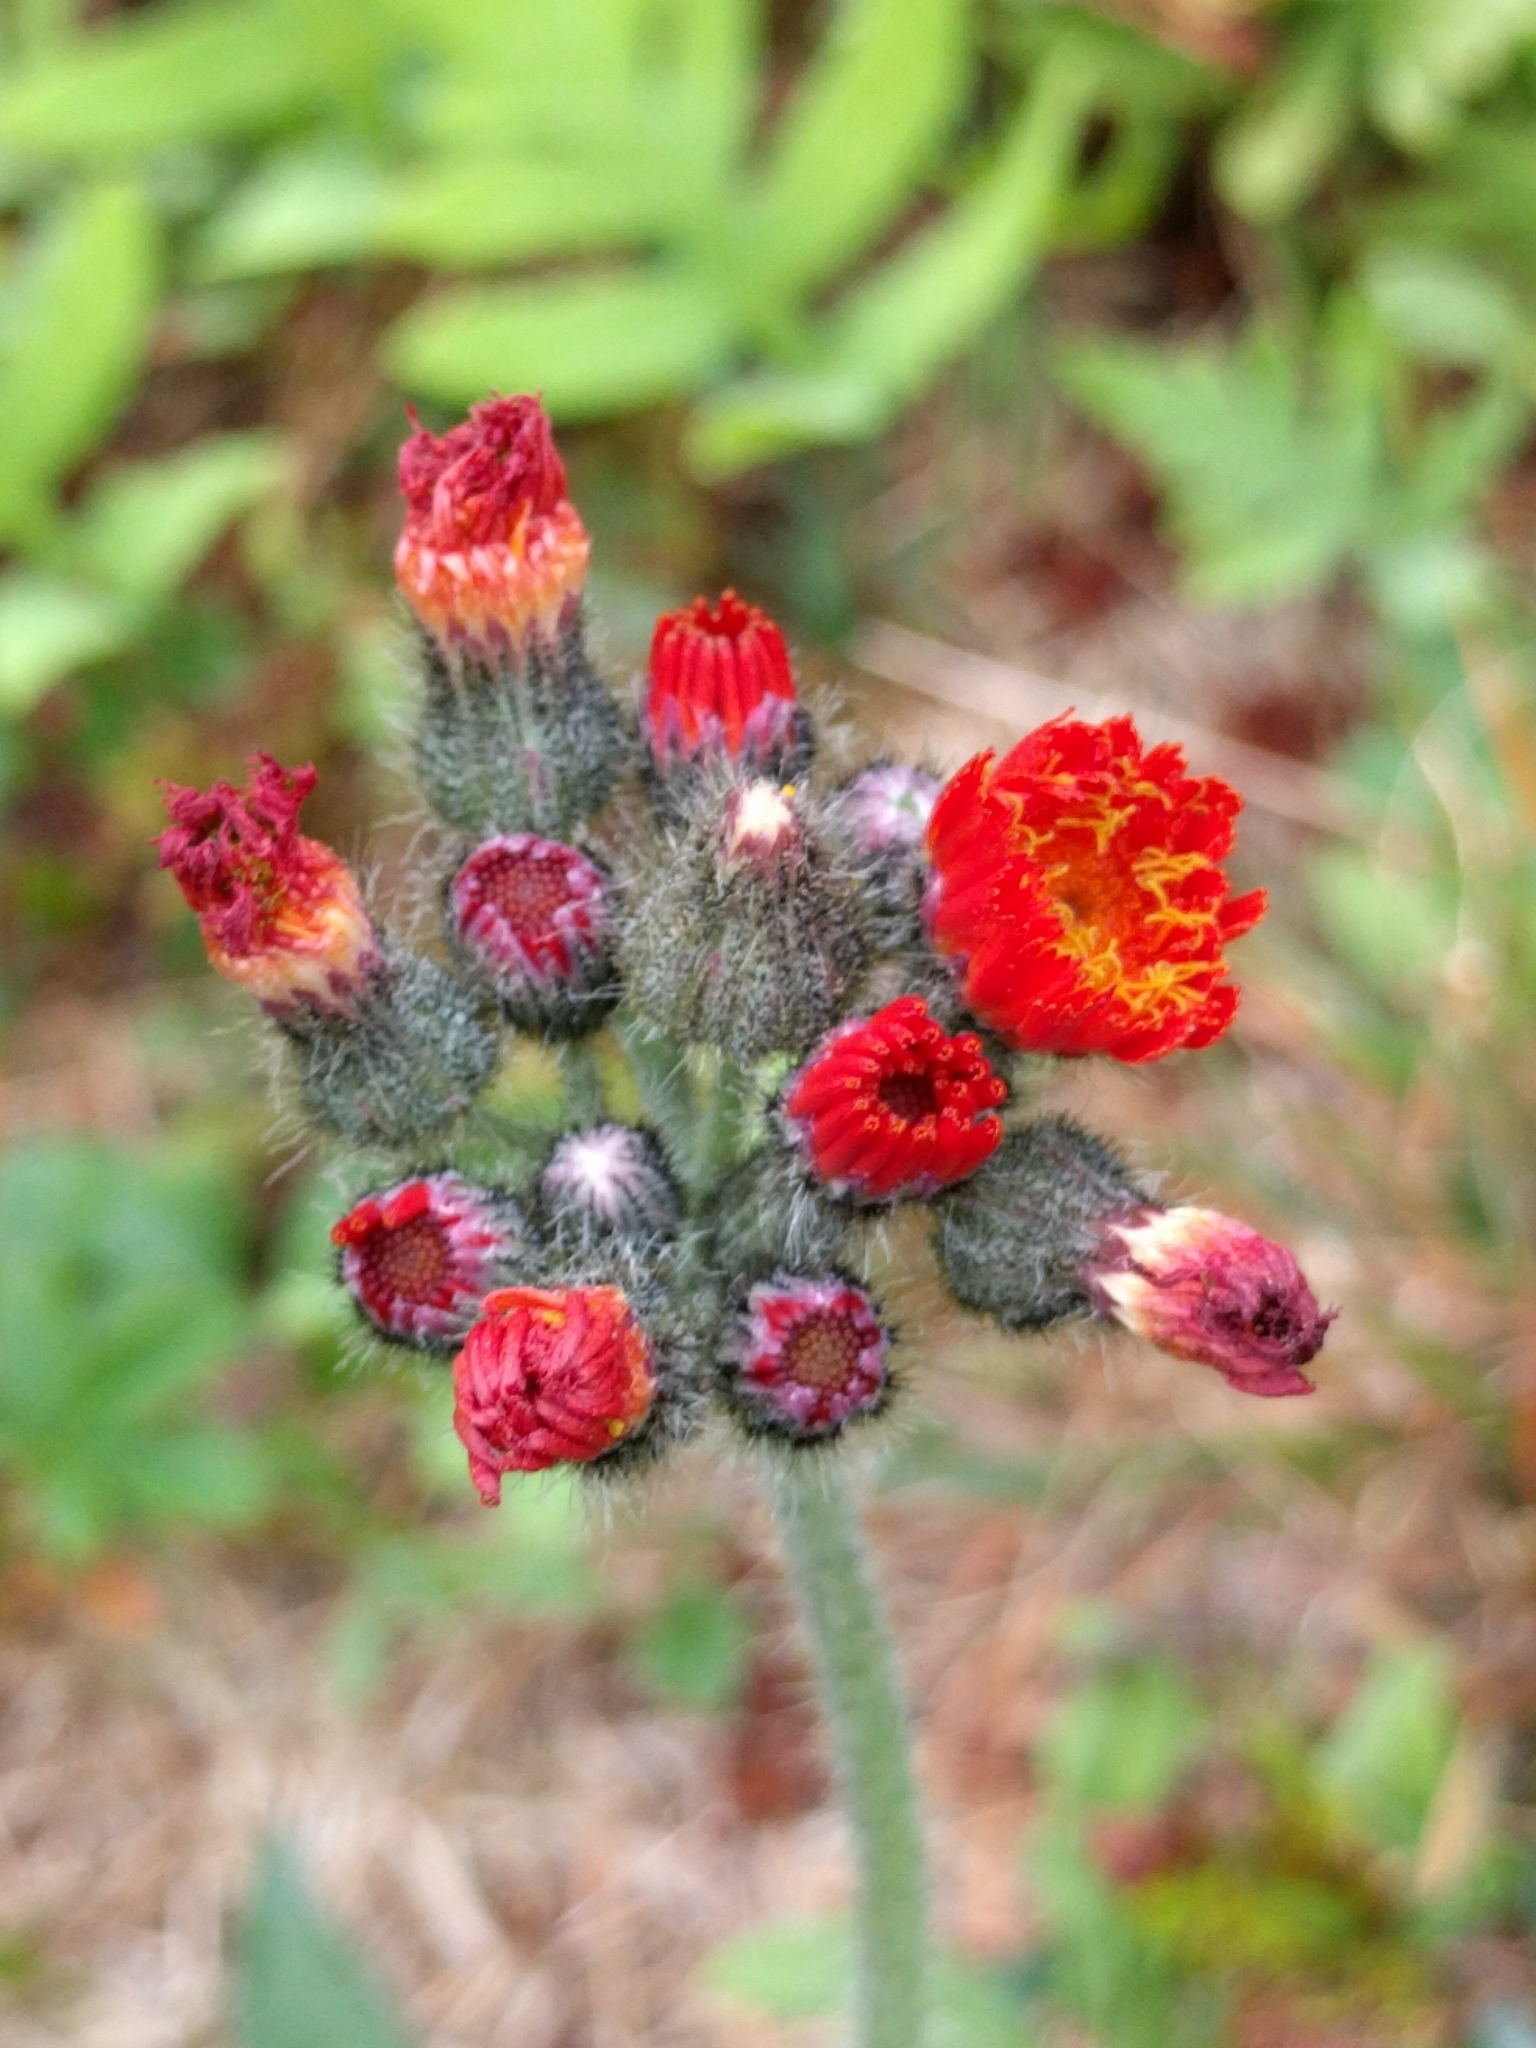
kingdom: Plantae
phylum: Tracheophyta
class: Magnoliopsida
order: Asterales
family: Asteraceae
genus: Pilosella
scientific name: Pilosella aurantiaca
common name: Fox-and-cubs
